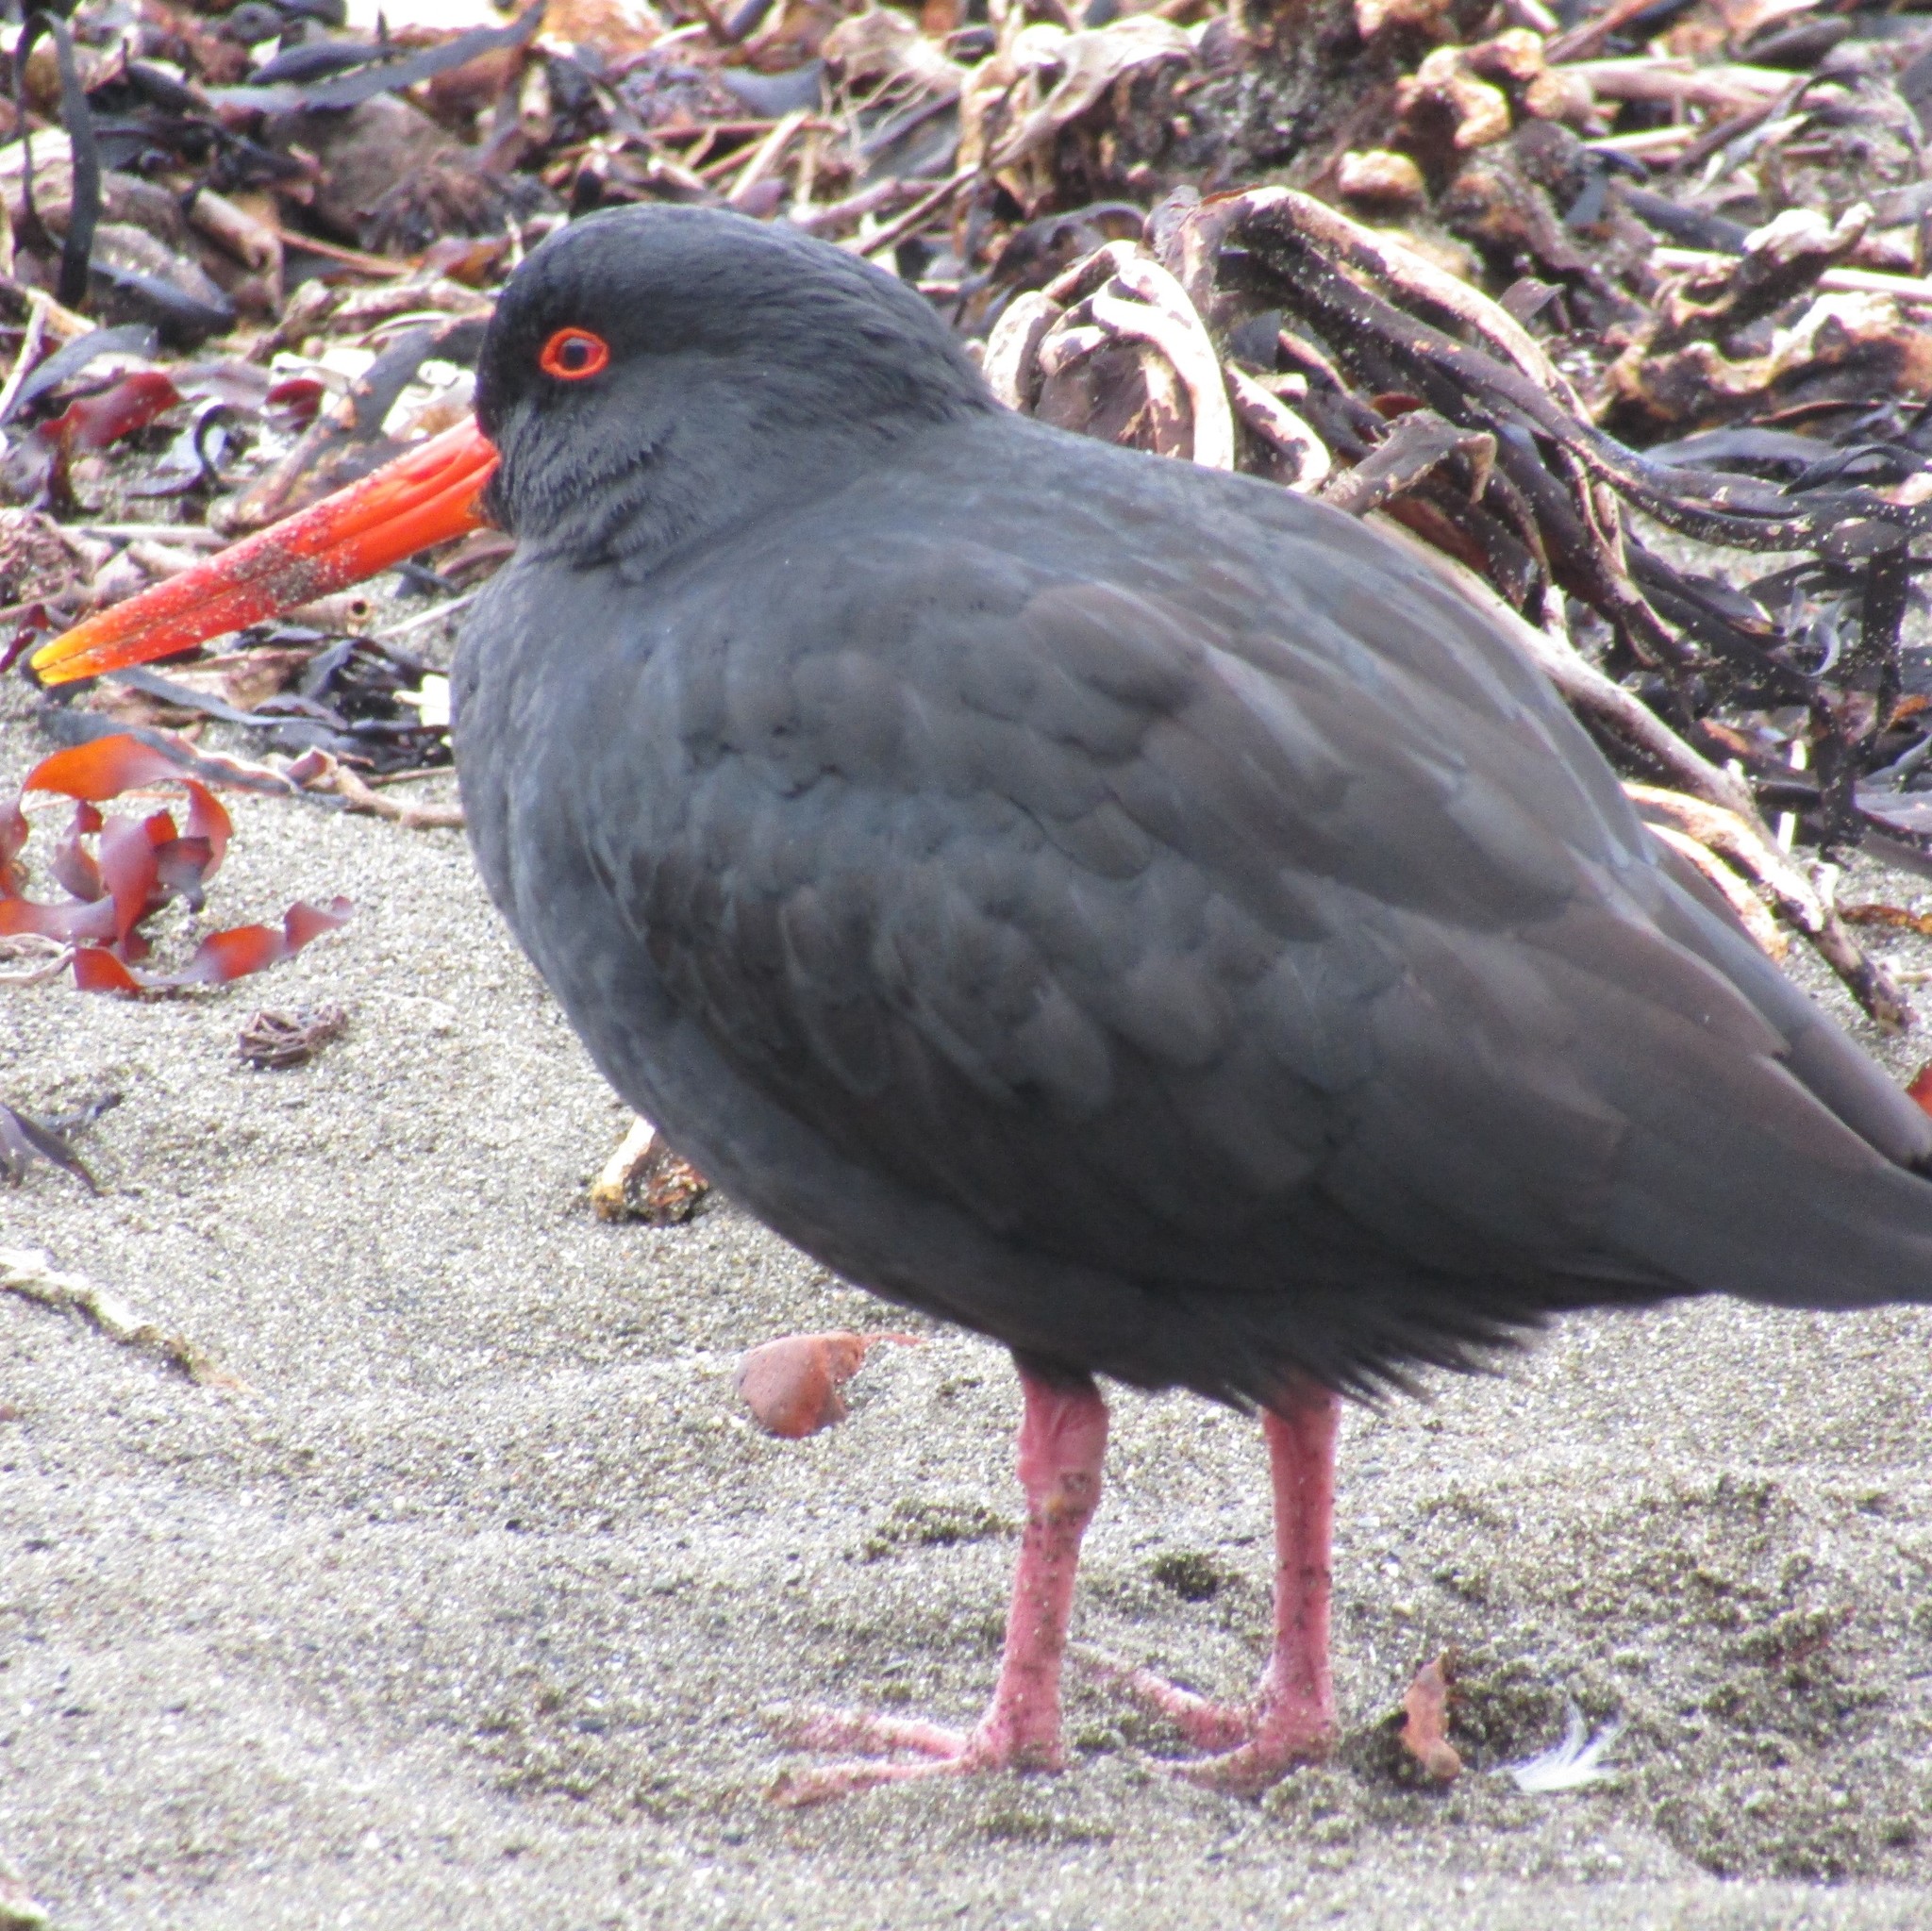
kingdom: Animalia
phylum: Chordata
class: Aves
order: Charadriiformes
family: Haematopodidae
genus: Haematopus
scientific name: Haematopus unicolor
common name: Variable oystercatcher
